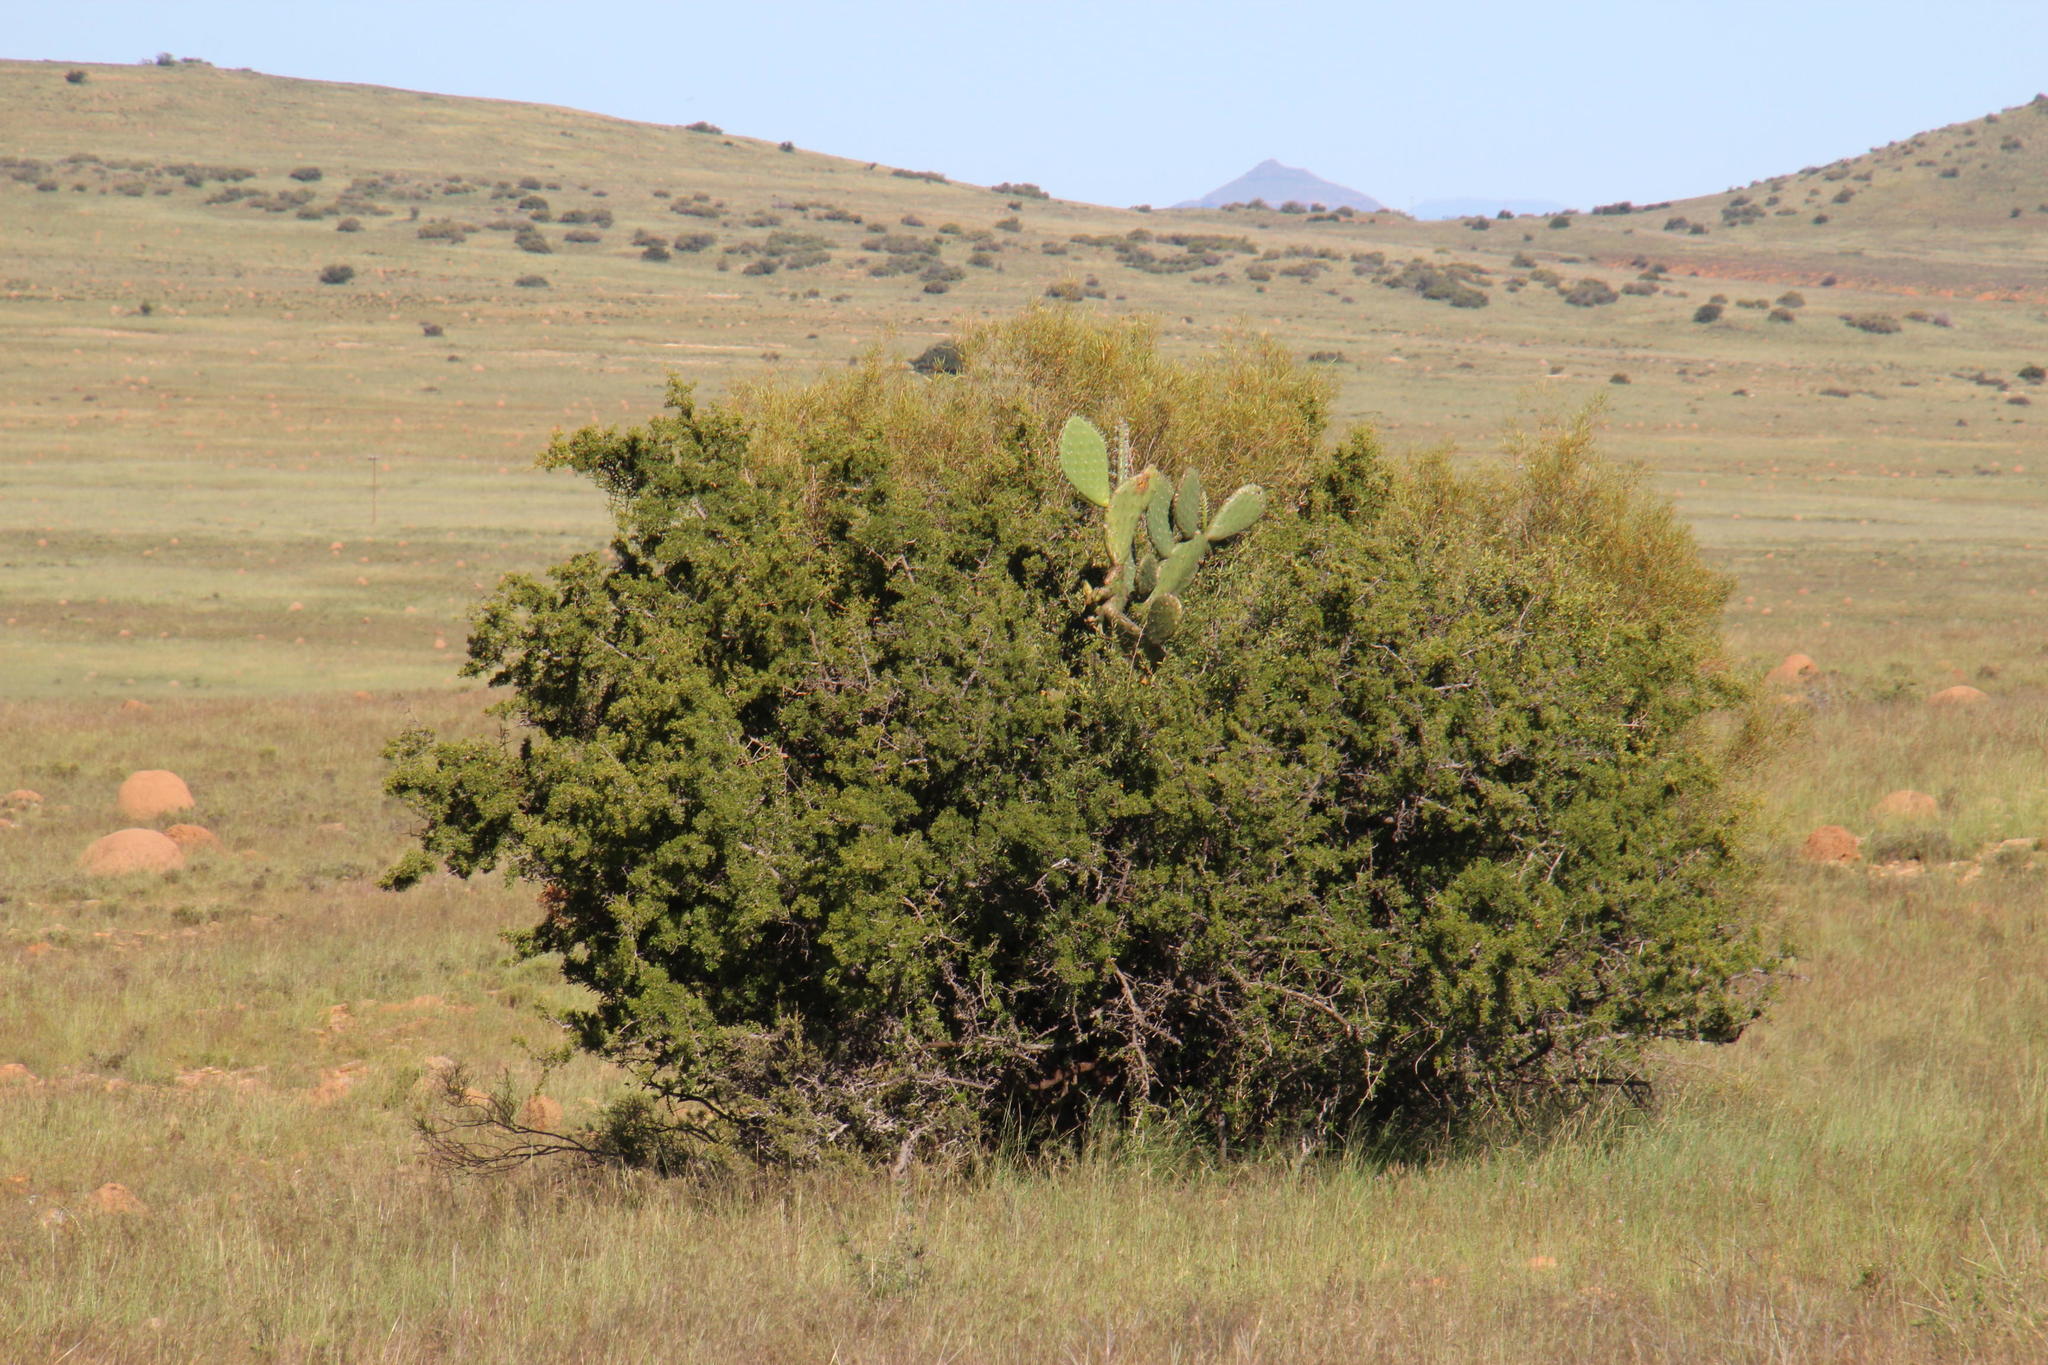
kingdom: Plantae
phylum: Tracheophyta
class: Magnoliopsida
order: Caryophyllales
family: Cactaceae
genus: Opuntia
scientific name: Opuntia ficus-indica
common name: Barbary fig
